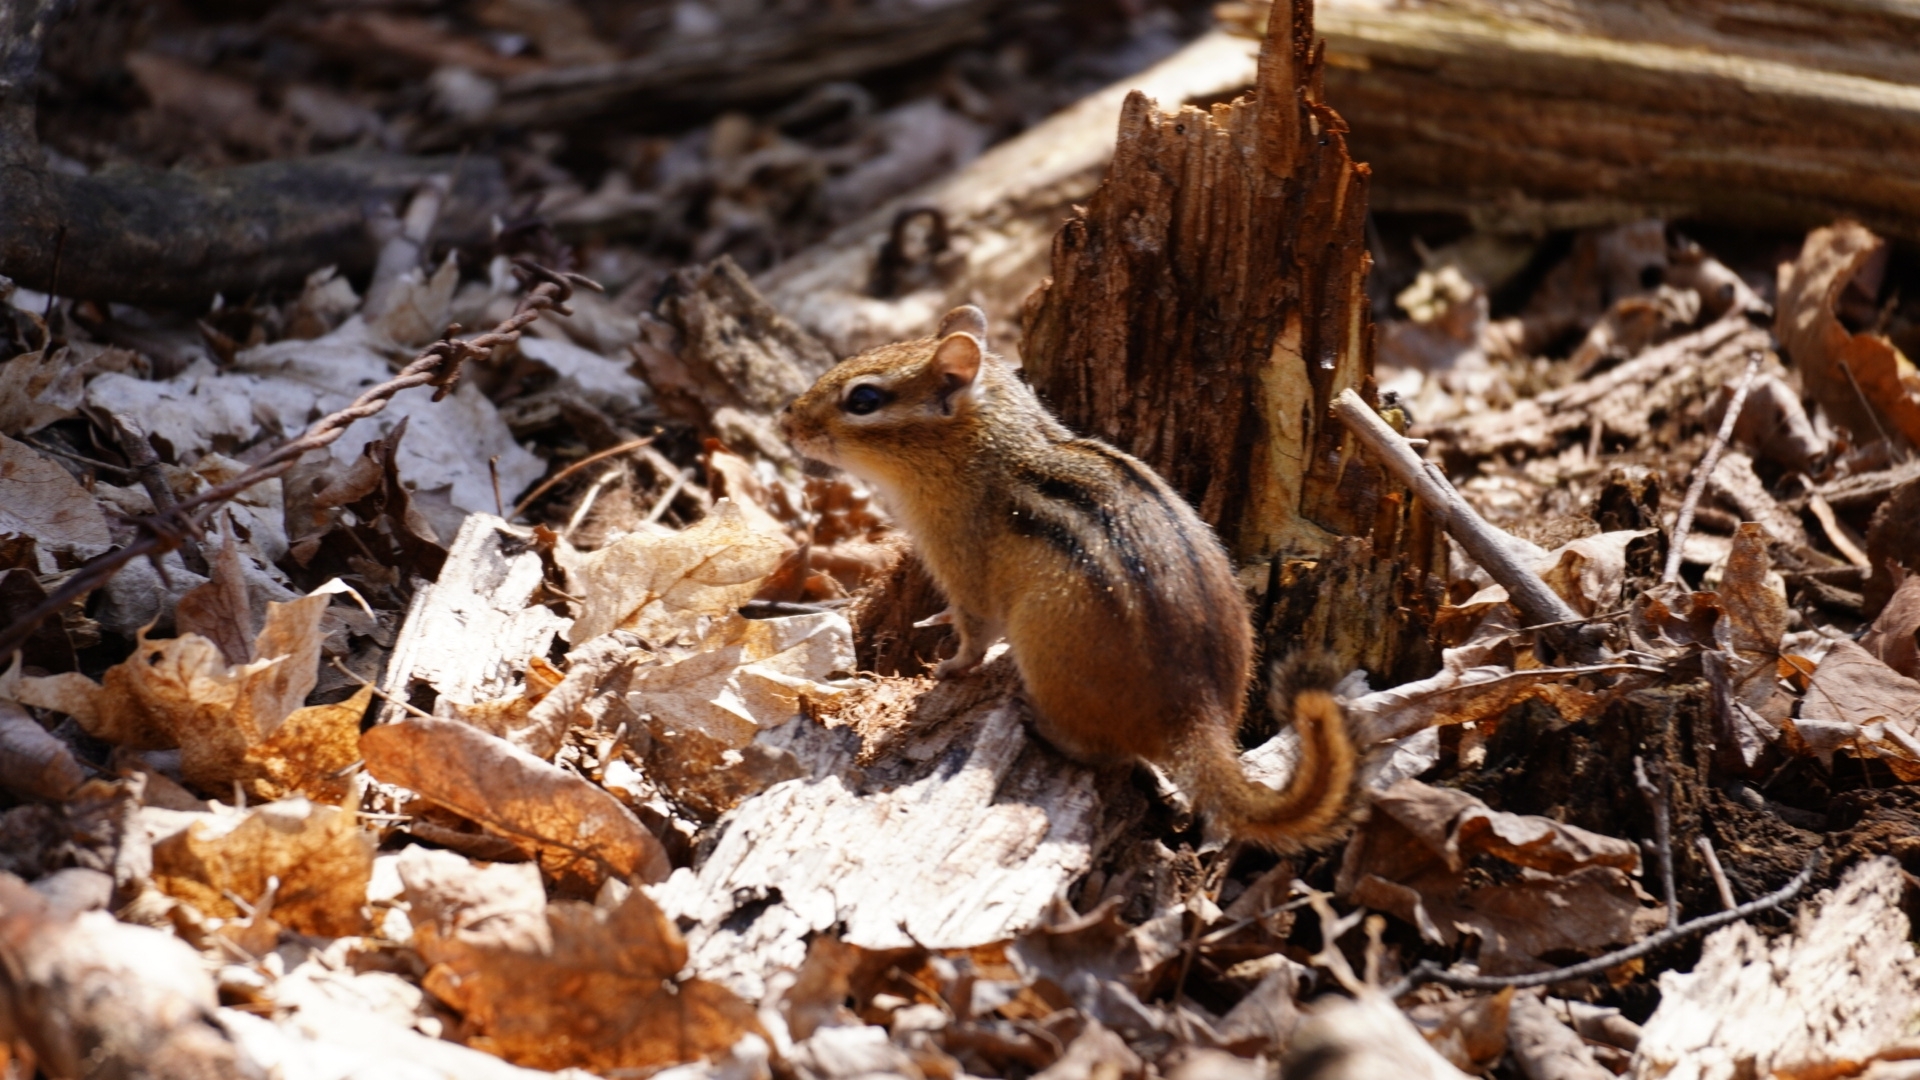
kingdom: Animalia
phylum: Chordata
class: Mammalia
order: Rodentia
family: Sciuridae
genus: Tamias
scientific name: Tamias striatus
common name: Eastern chipmunk
